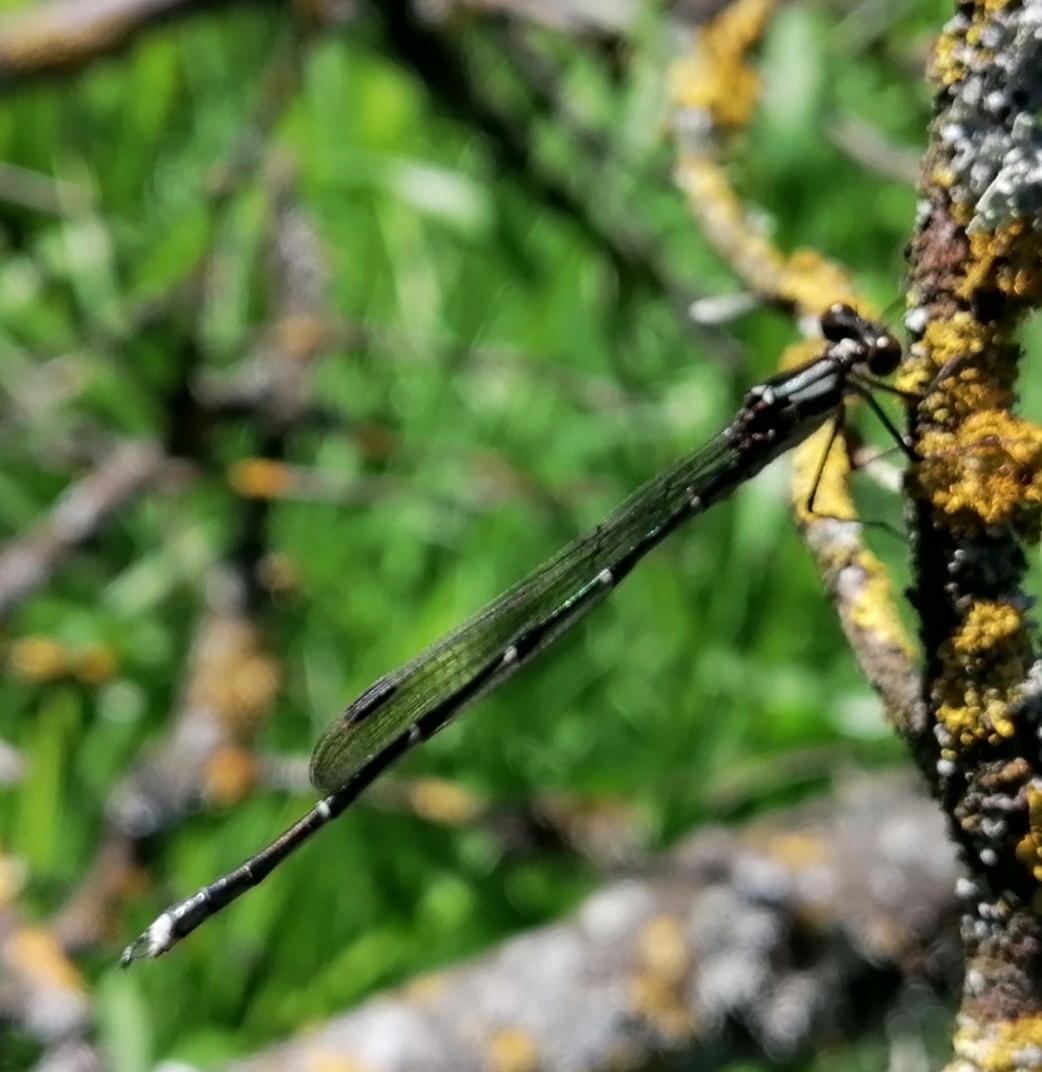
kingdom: Animalia
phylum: Arthropoda
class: Insecta
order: Odonata
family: Lestidae
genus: Austrolestes
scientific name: Austrolestes colensonis
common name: Blue damselfly
